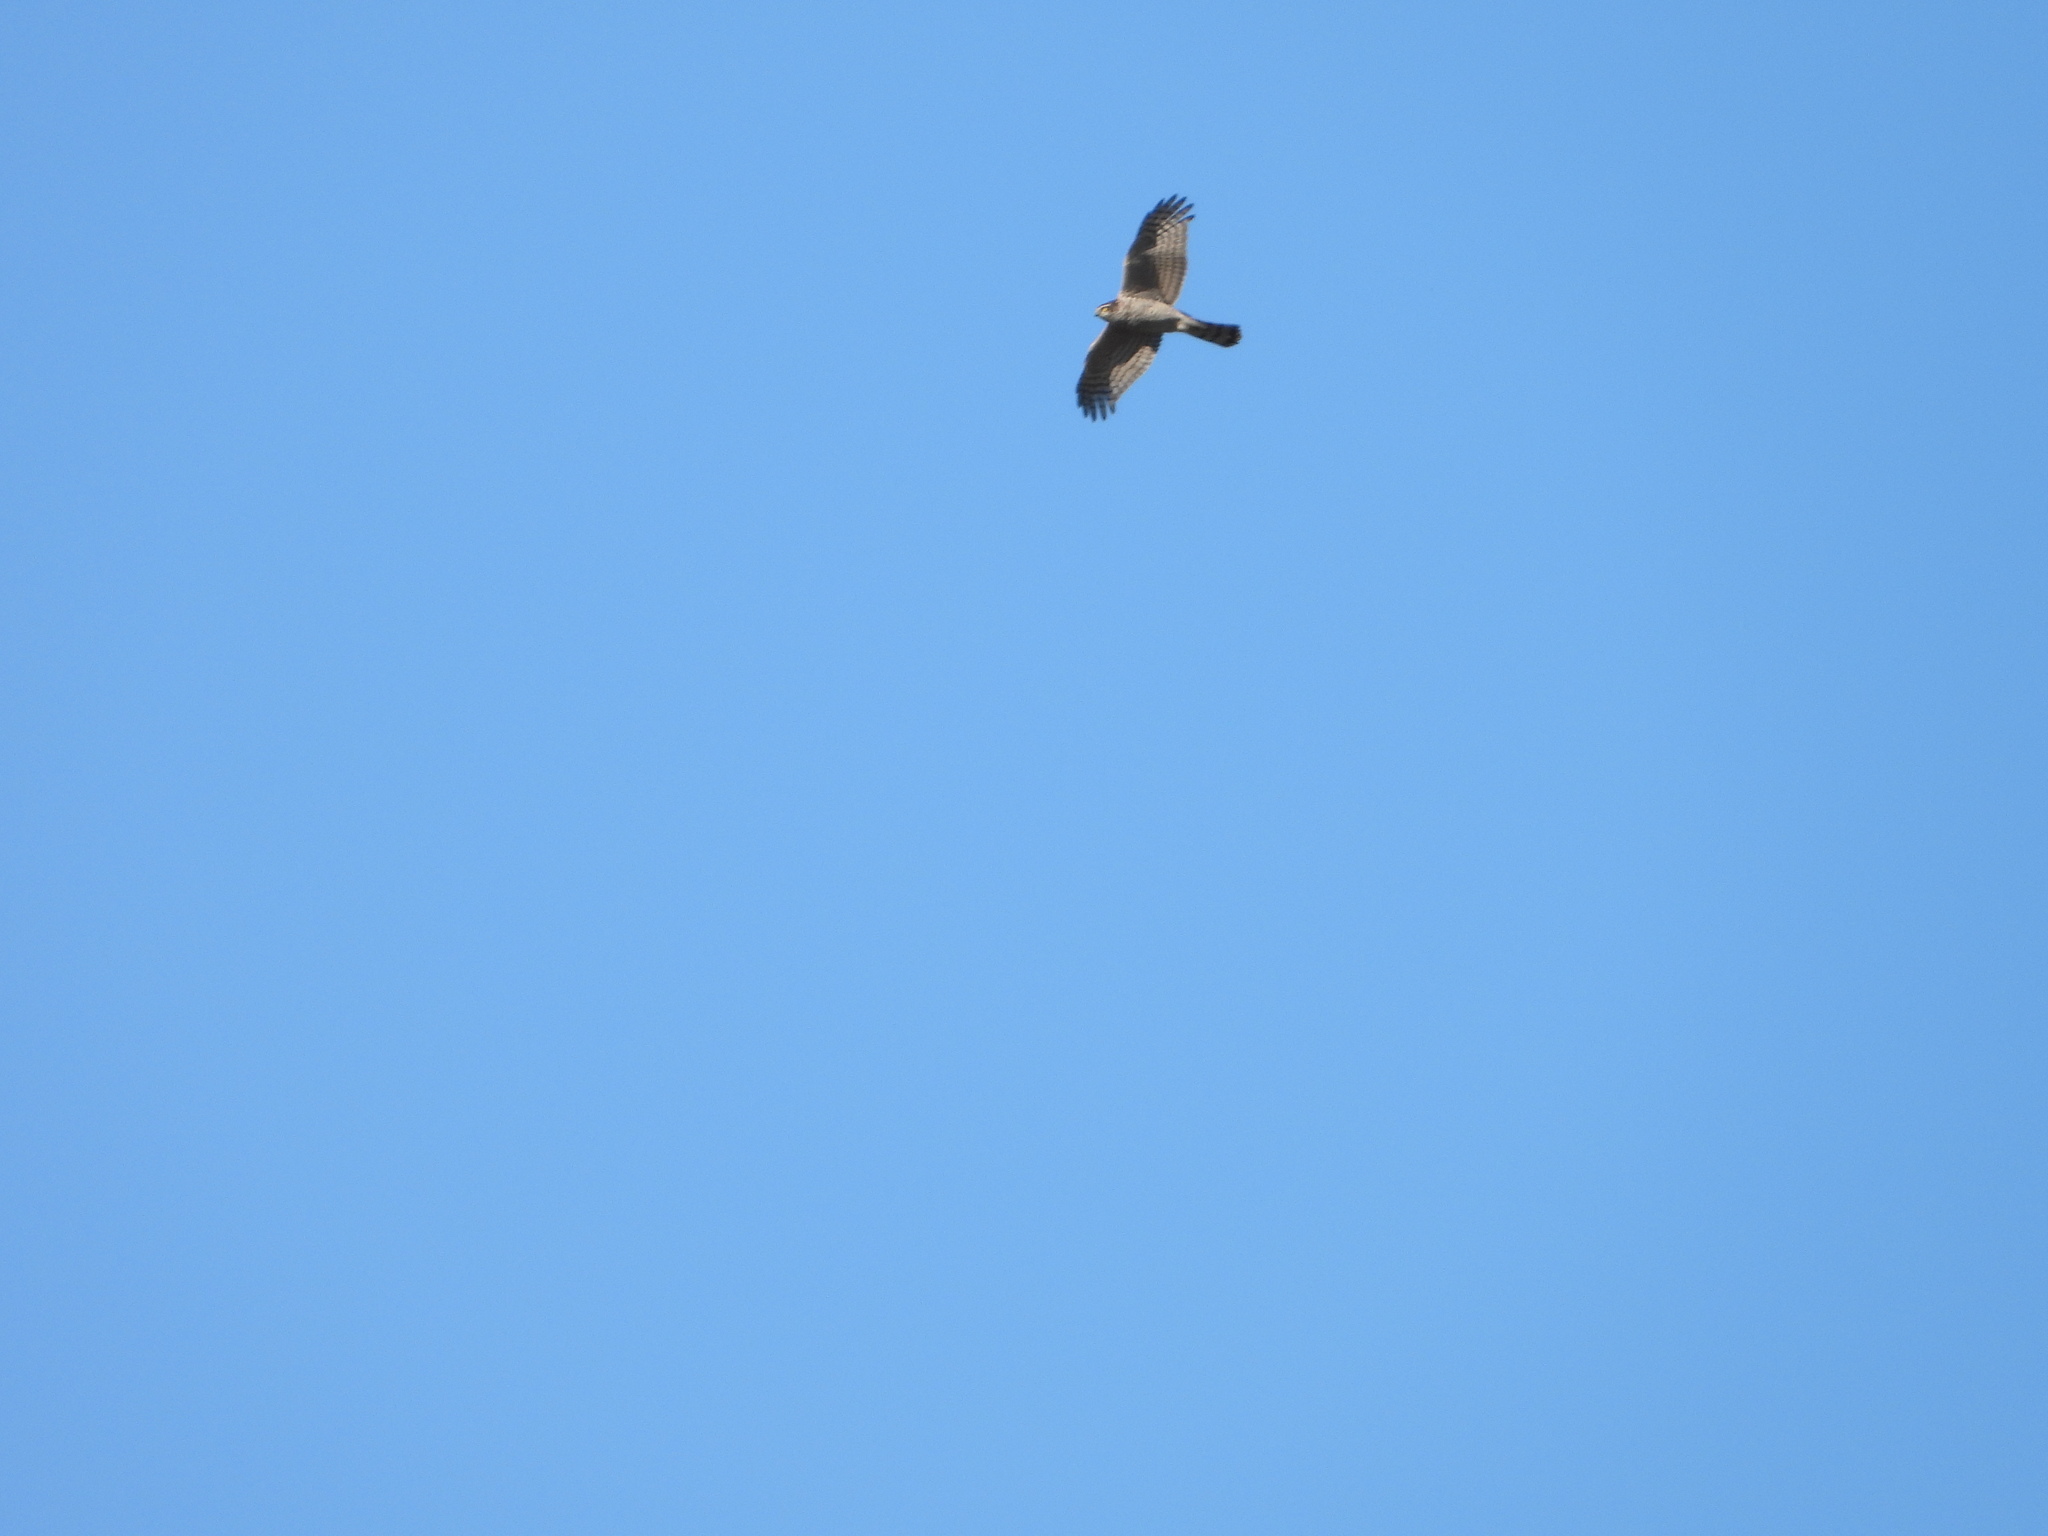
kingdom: Animalia
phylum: Chordata
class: Aves
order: Accipitriformes
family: Accipitridae
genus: Accipiter
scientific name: Accipiter nisus
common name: Eurasian sparrowhawk
